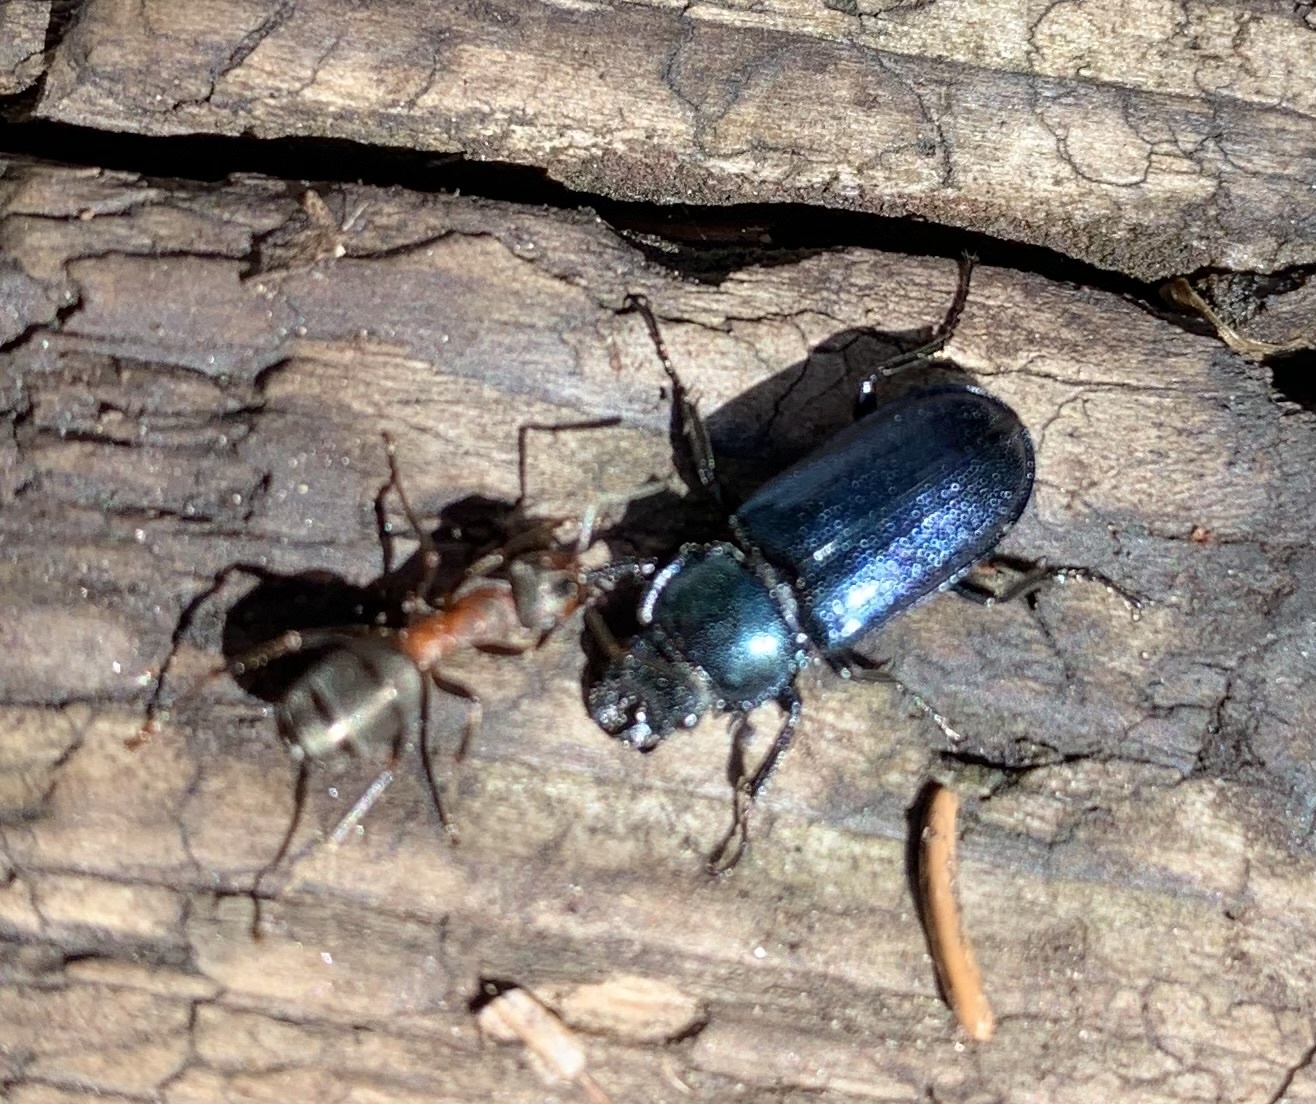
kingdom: Animalia
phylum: Arthropoda
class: Insecta
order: Coleoptera
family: Lucanidae
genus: Platycerus
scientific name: Platycerus caraboides
